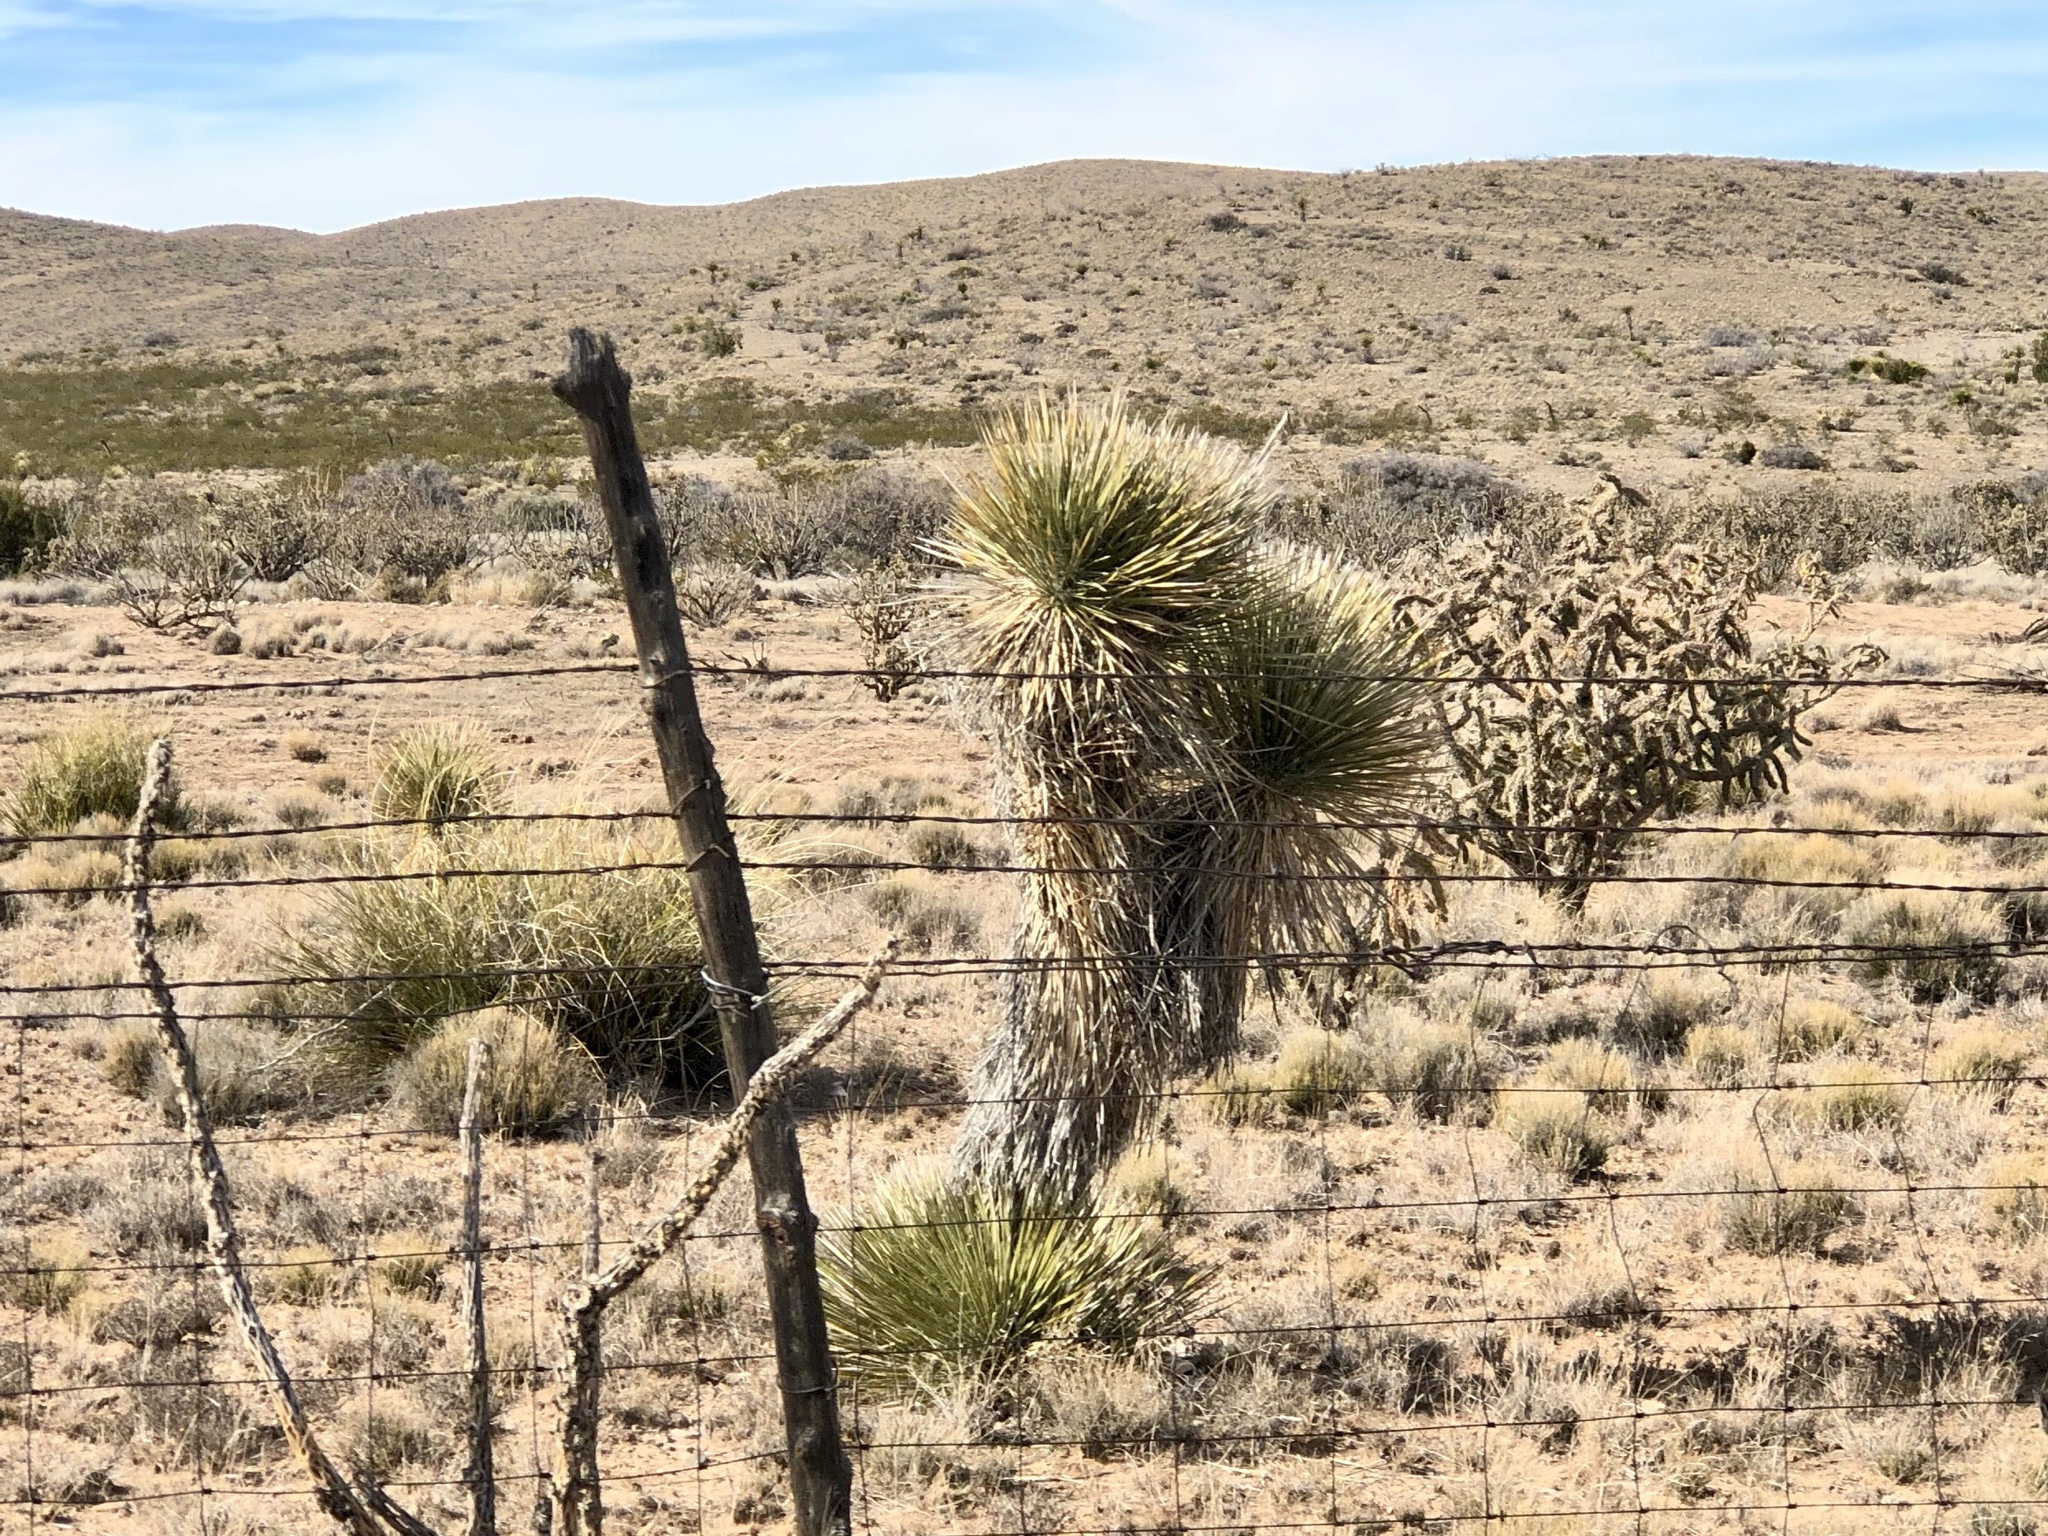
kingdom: Plantae
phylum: Tracheophyta
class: Liliopsida
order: Asparagales
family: Asparagaceae
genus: Yucca
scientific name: Yucca elata
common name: Palmella
